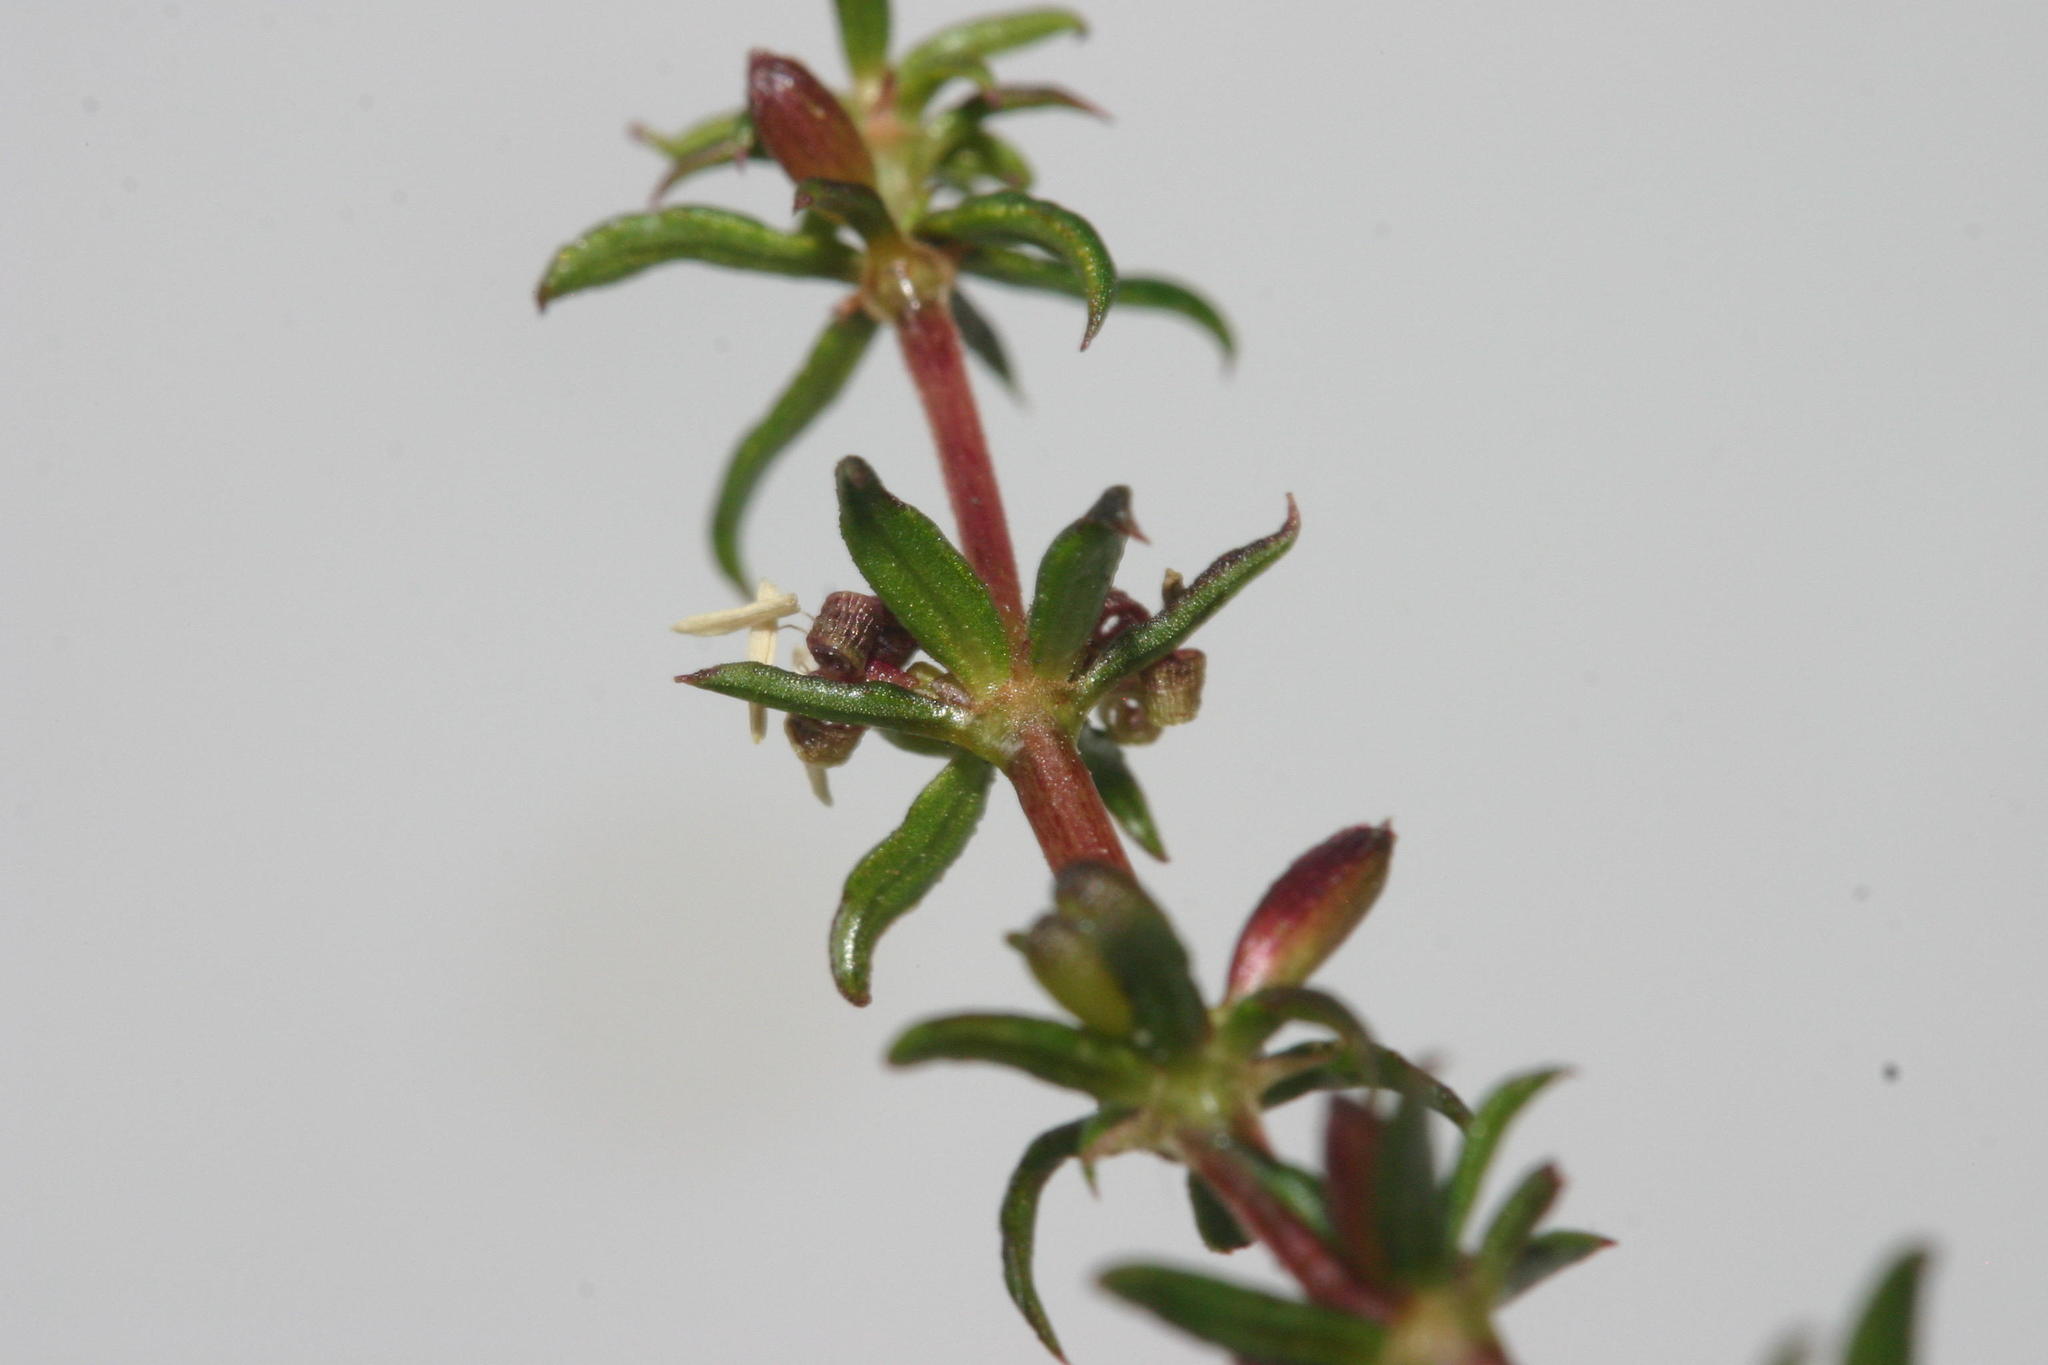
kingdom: Plantae
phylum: Tracheophyta
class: Magnoliopsida
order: Gentianales
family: Rubiaceae
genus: Anthospermum
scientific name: Anthospermum galioides
